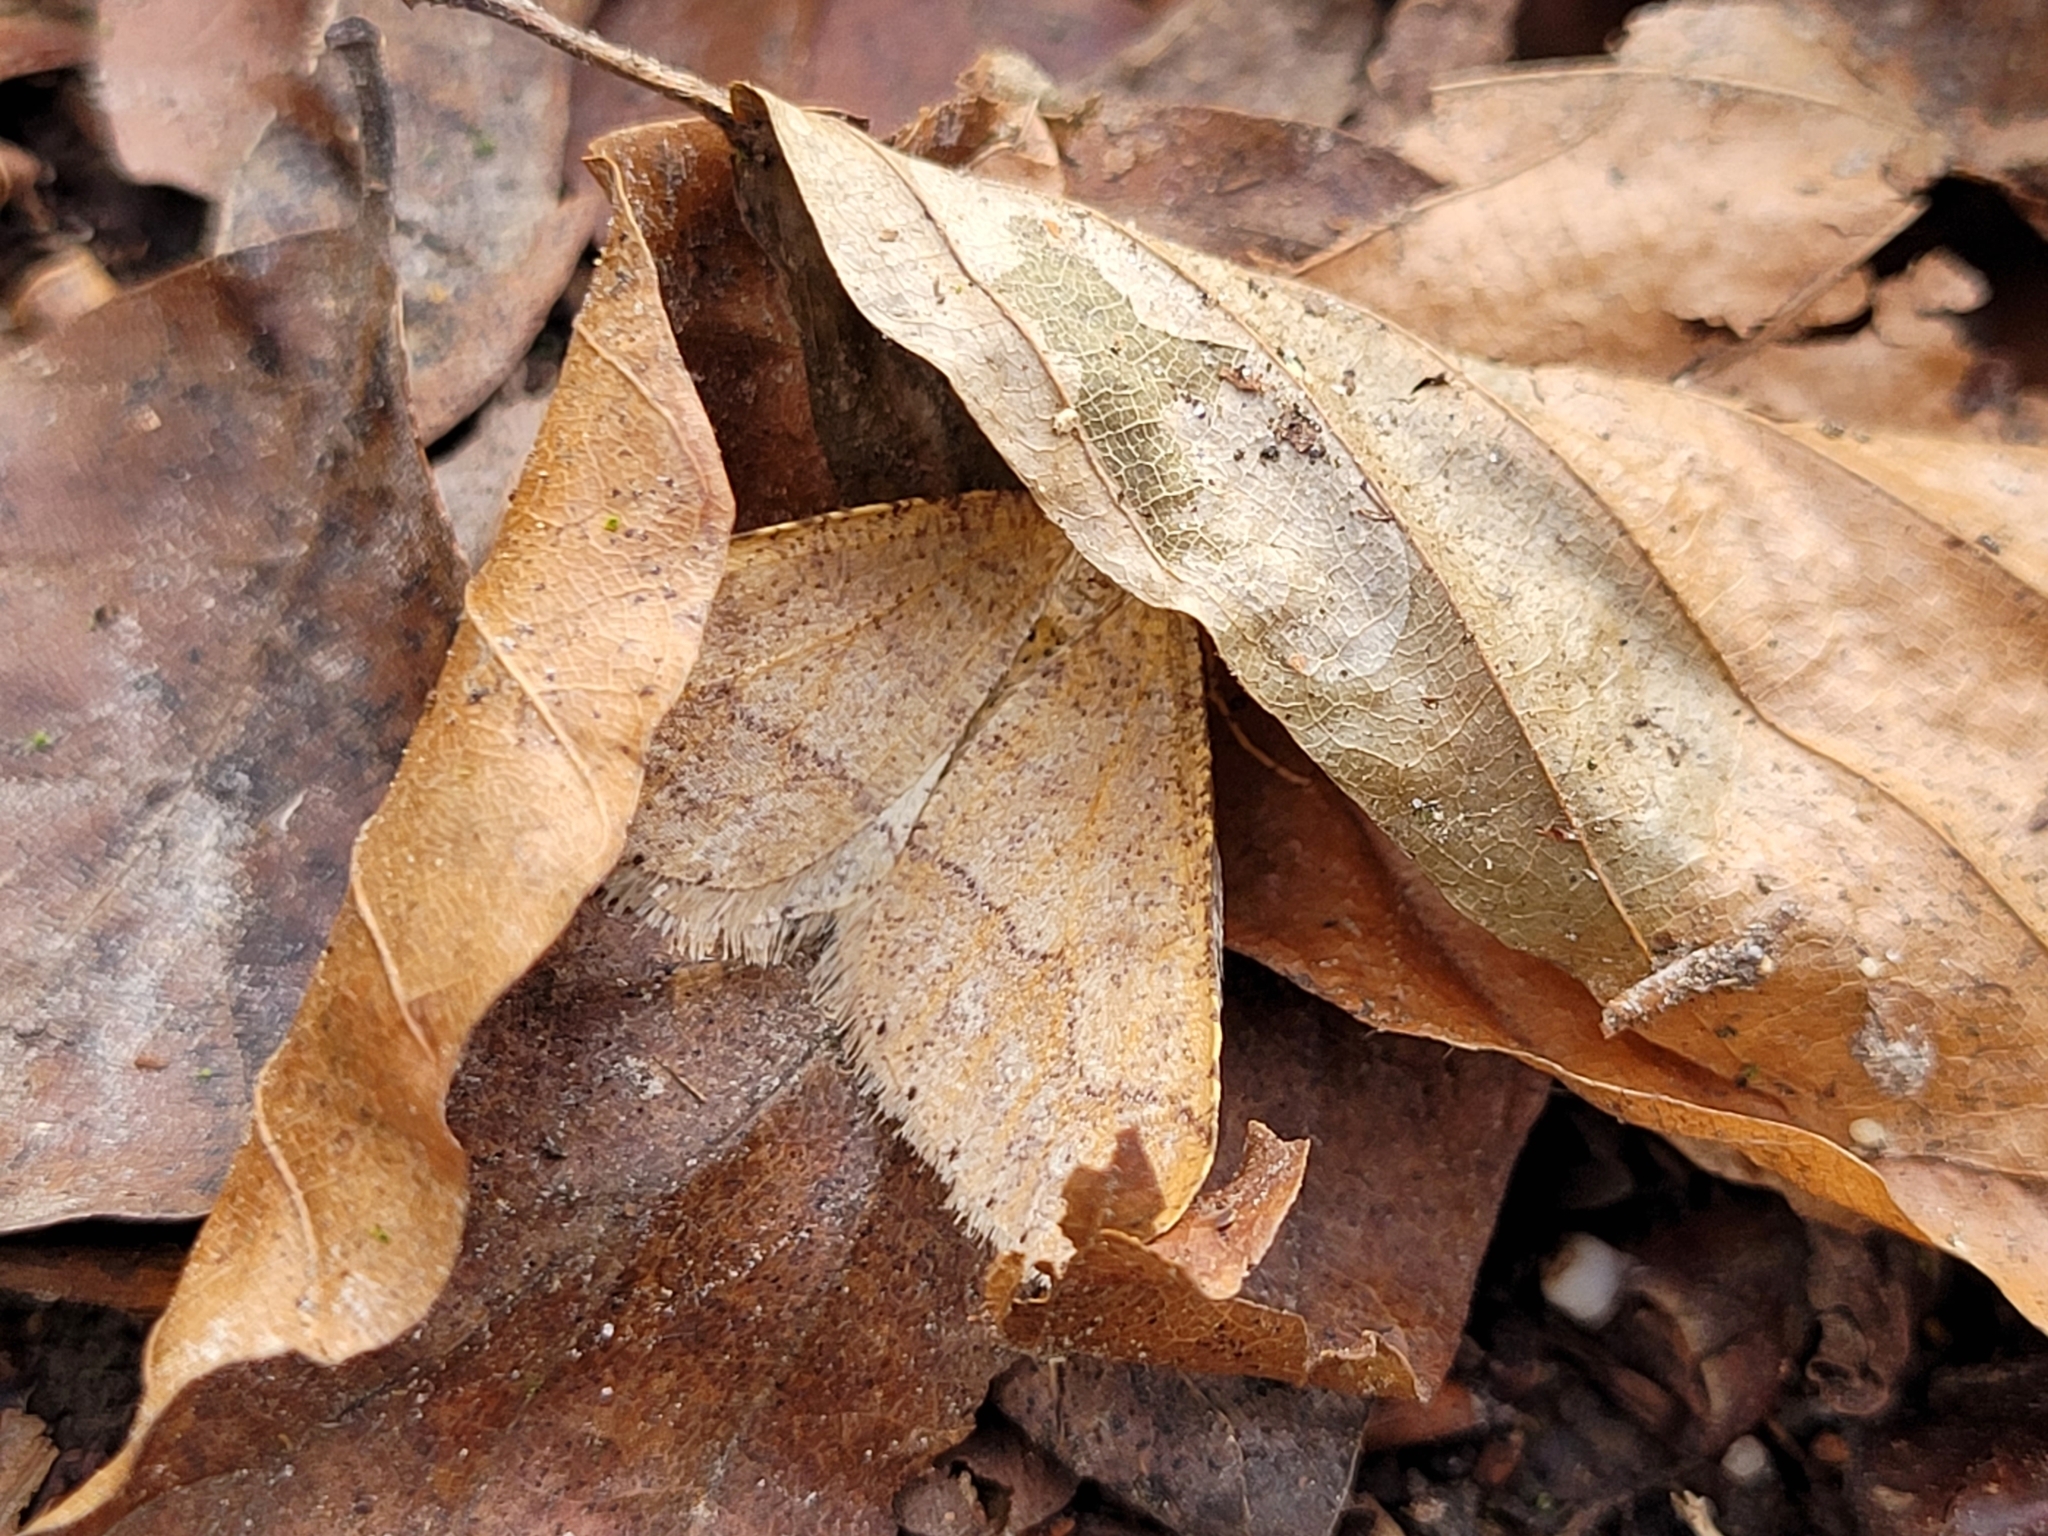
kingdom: Animalia
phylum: Arthropoda
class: Insecta
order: Lepidoptera
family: Geometridae
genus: Agriopis
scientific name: Agriopis marginaria
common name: Dotted border
